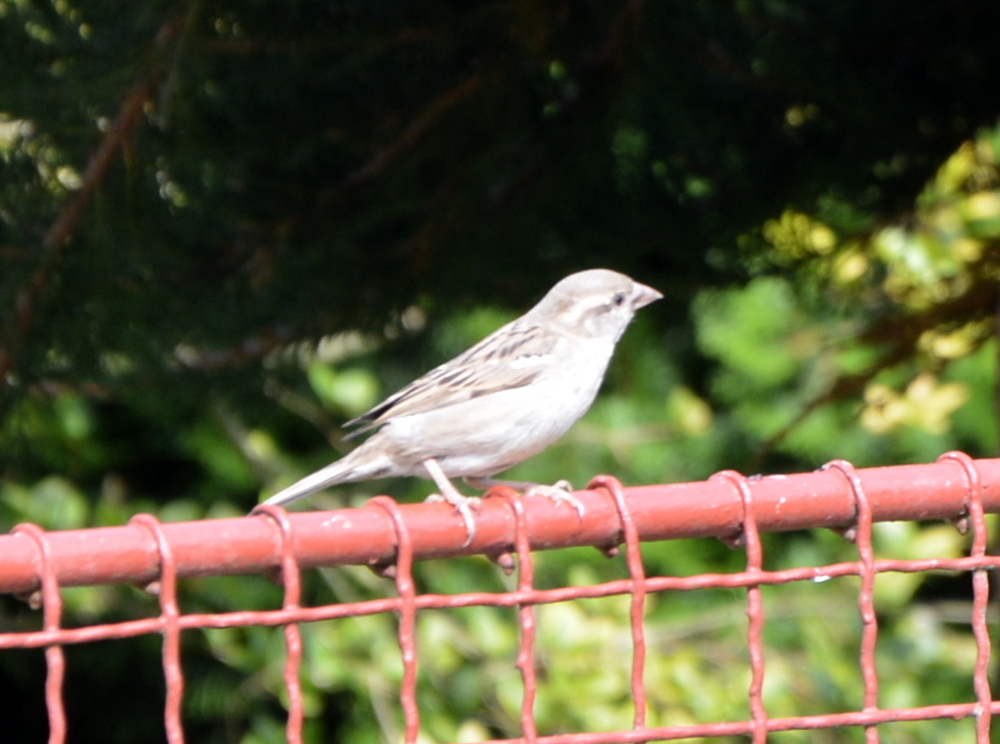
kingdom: Animalia
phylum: Chordata
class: Aves
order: Passeriformes
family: Passeridae
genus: Passer
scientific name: Passer domesticus
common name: House sparrow
